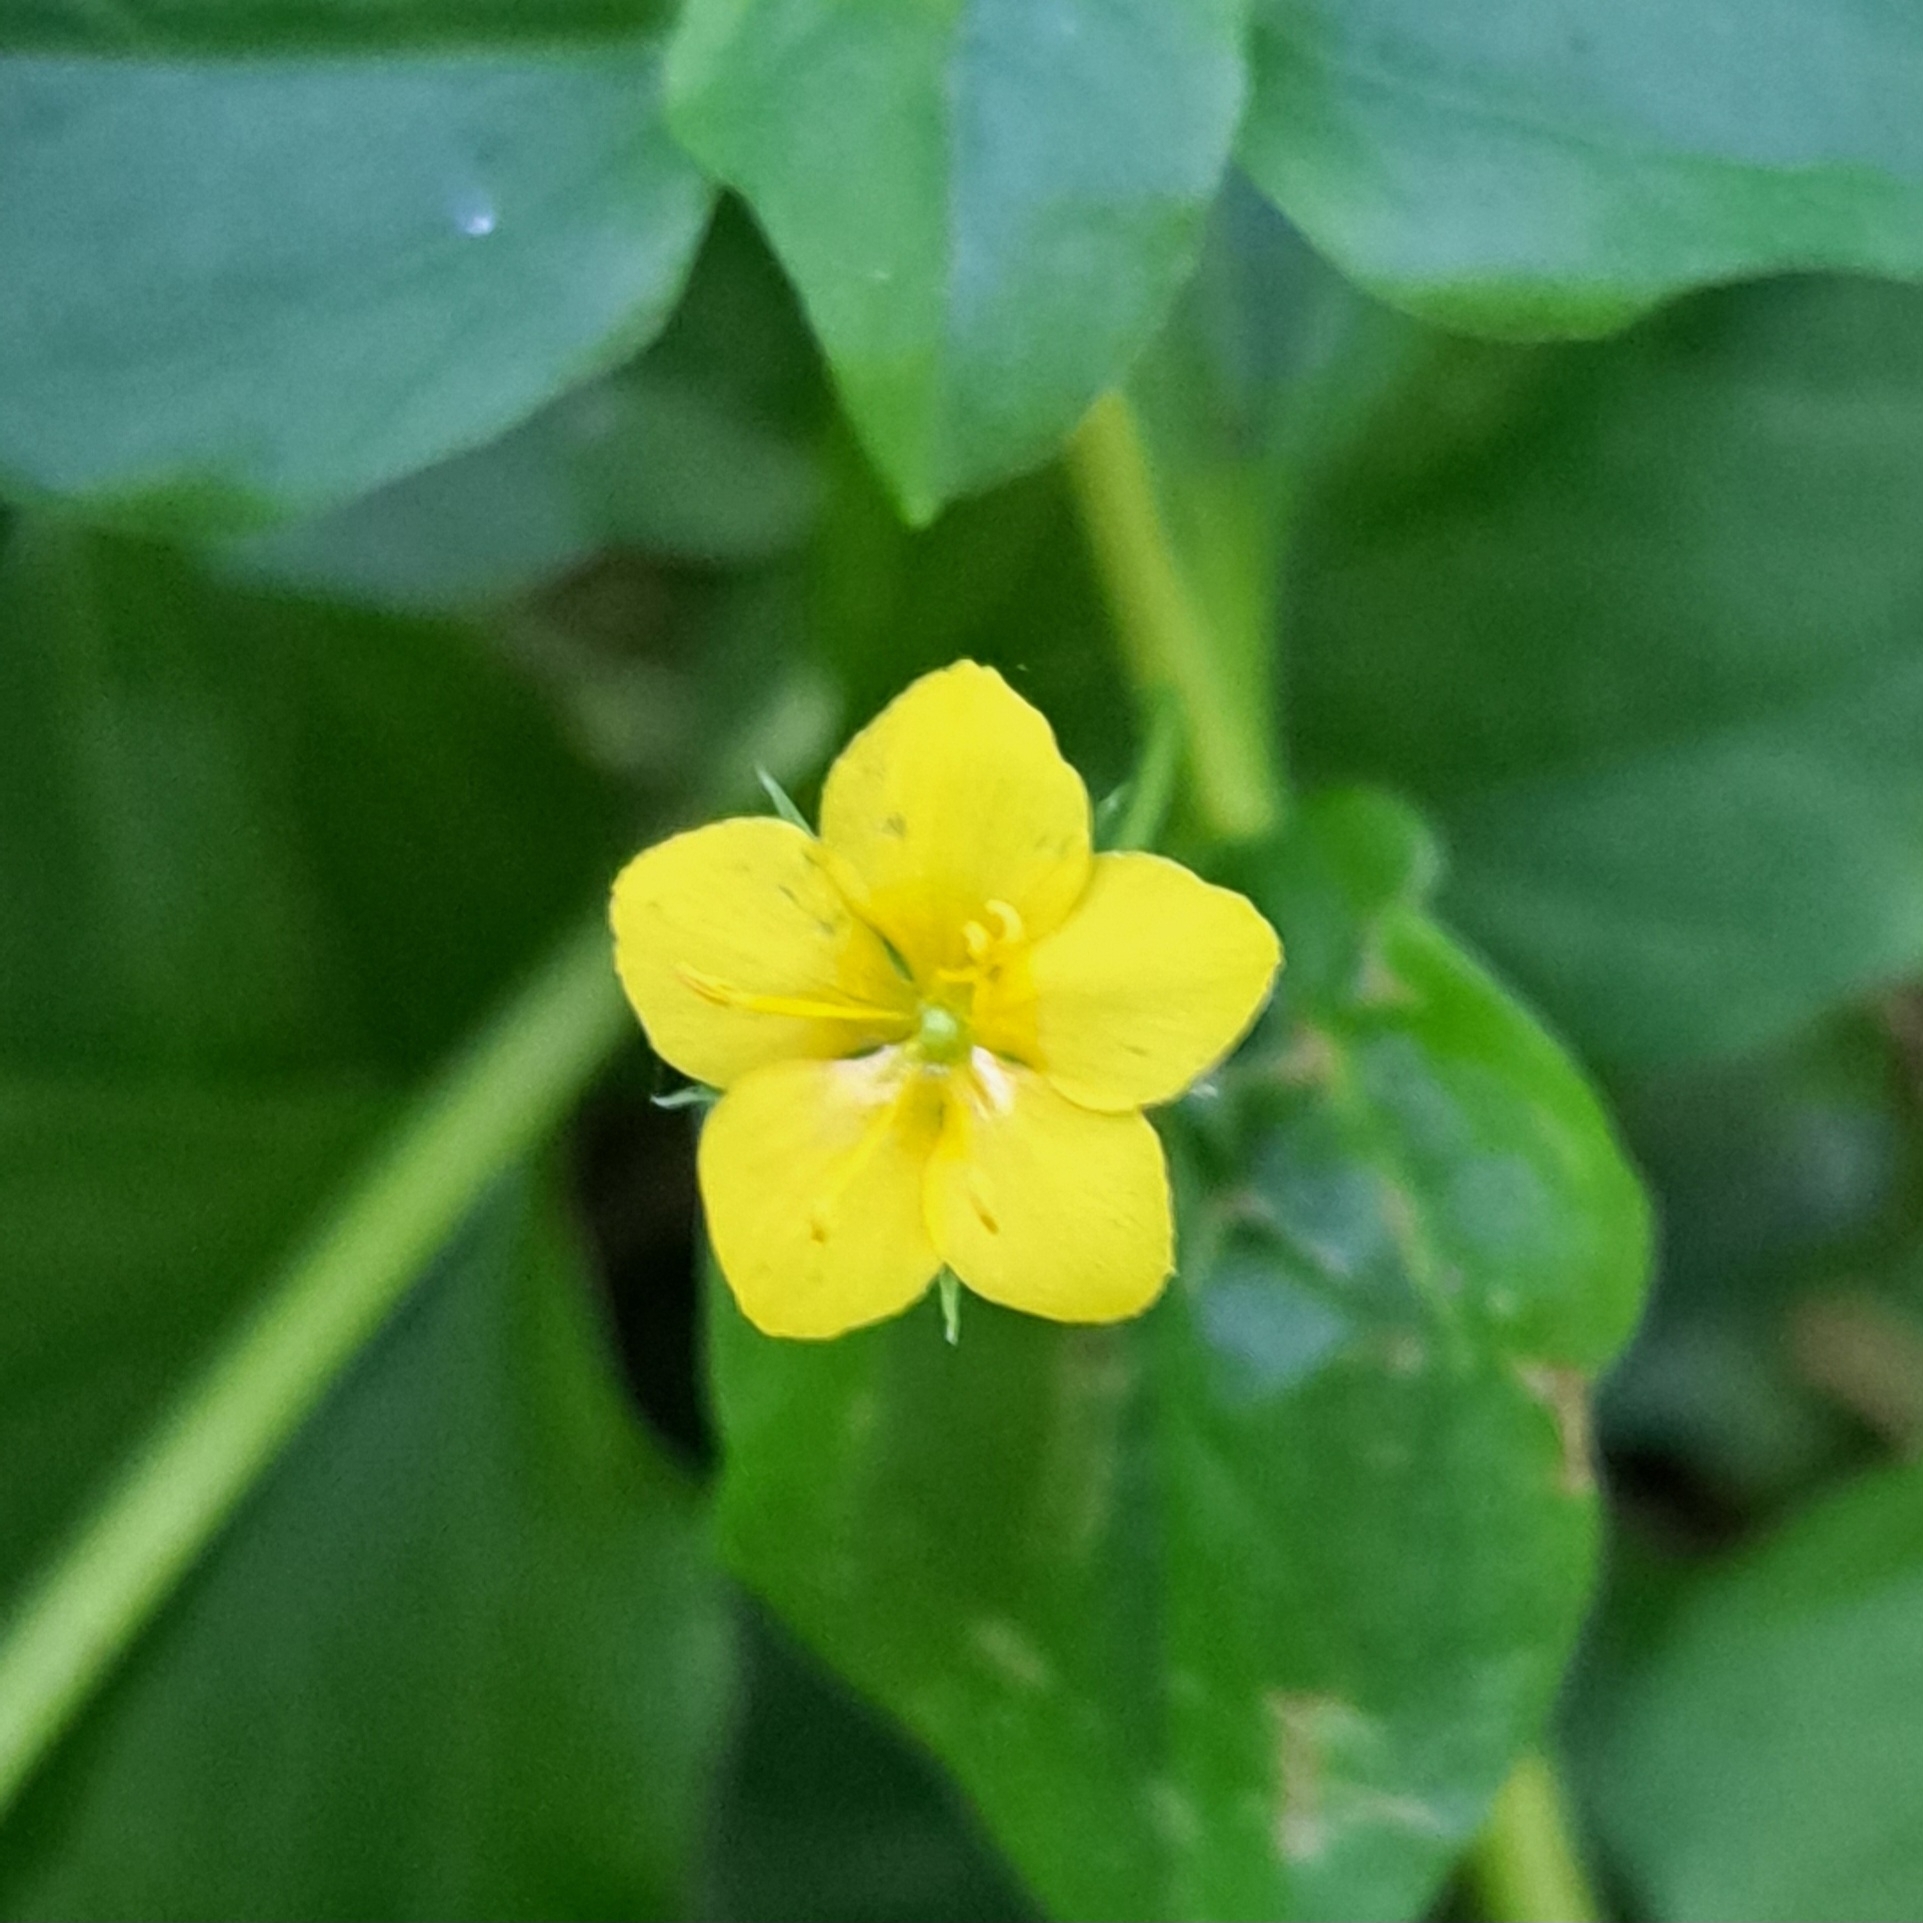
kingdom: Plantae
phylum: Tracheophyta
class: Magnoliopsida
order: Ericales
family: Primulaceae
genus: Lysimachia
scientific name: Lysimachia nemorum
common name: Yellow pimpernel
